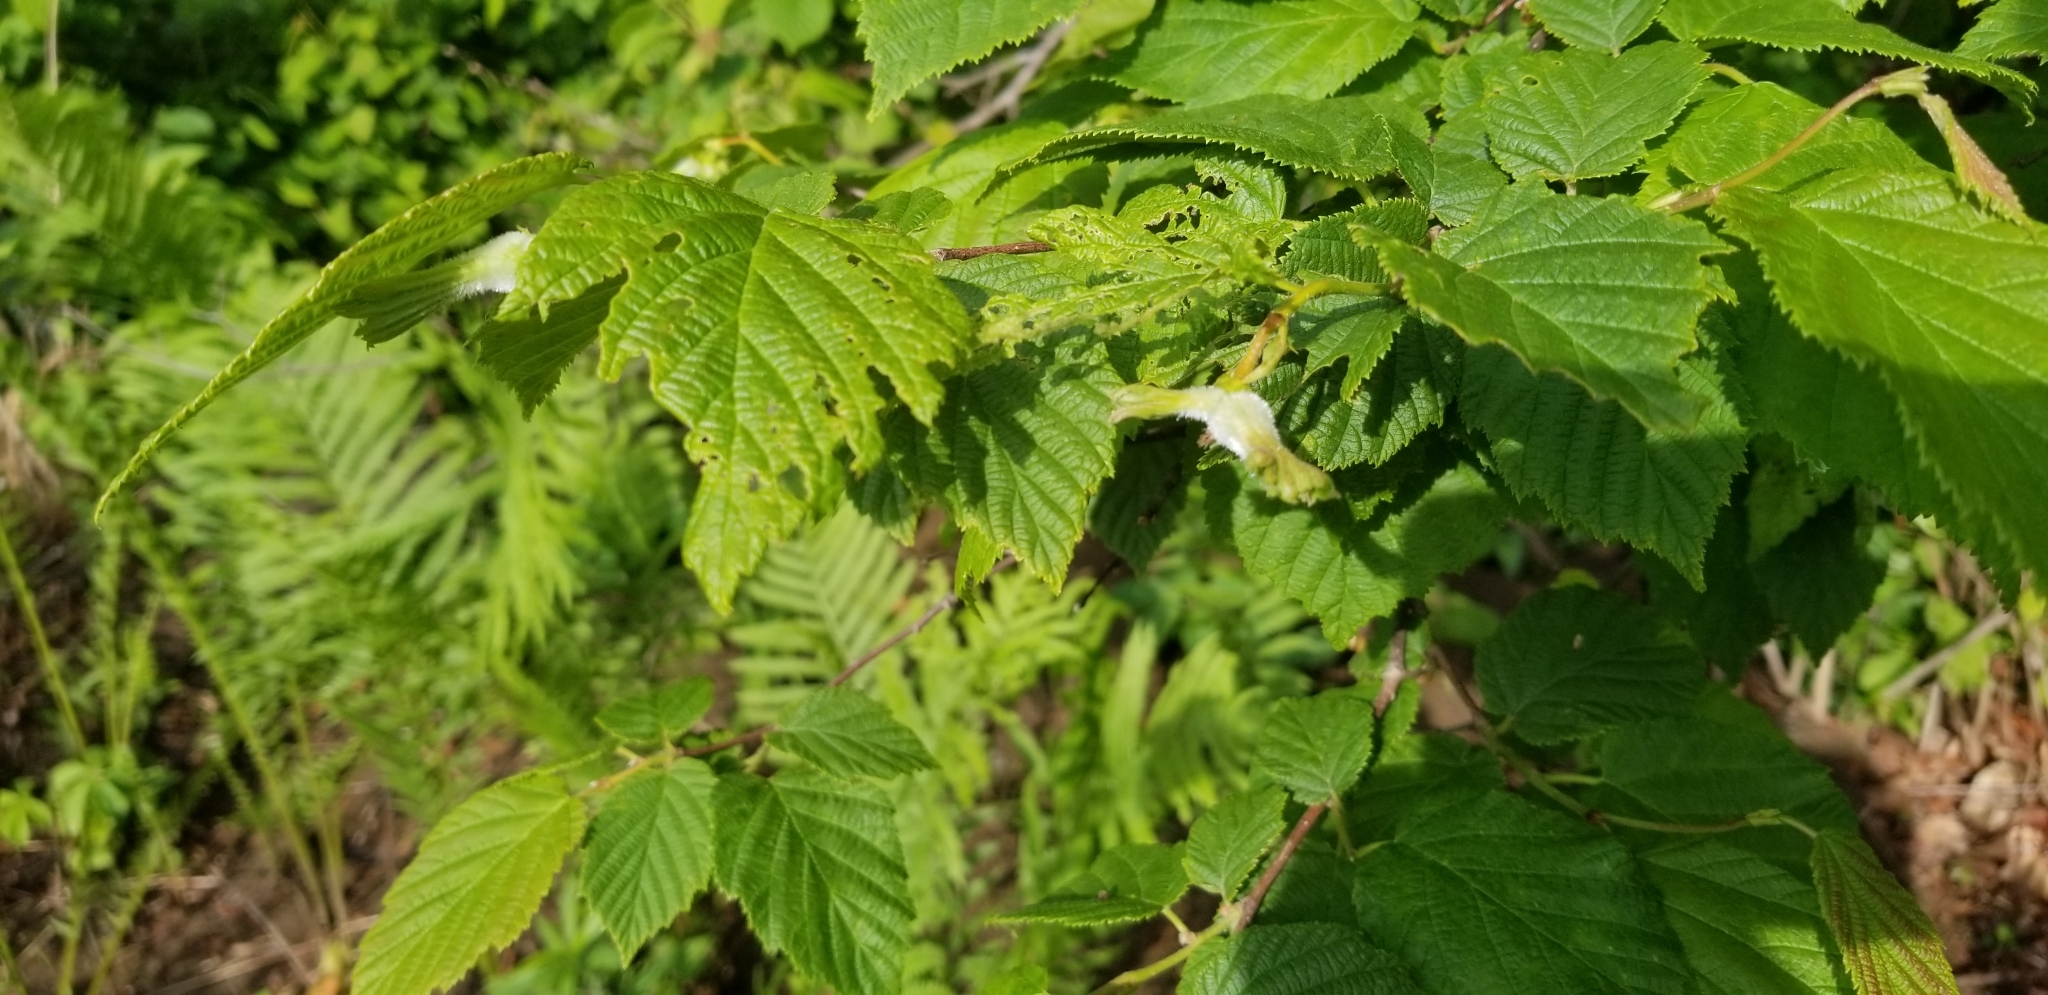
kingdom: Plantae
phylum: Tracheophyta
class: Magnoliopsida
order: Fagales
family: Betulaceae
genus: Corylus
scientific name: Corylus cornuta
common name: Beaked hazel
